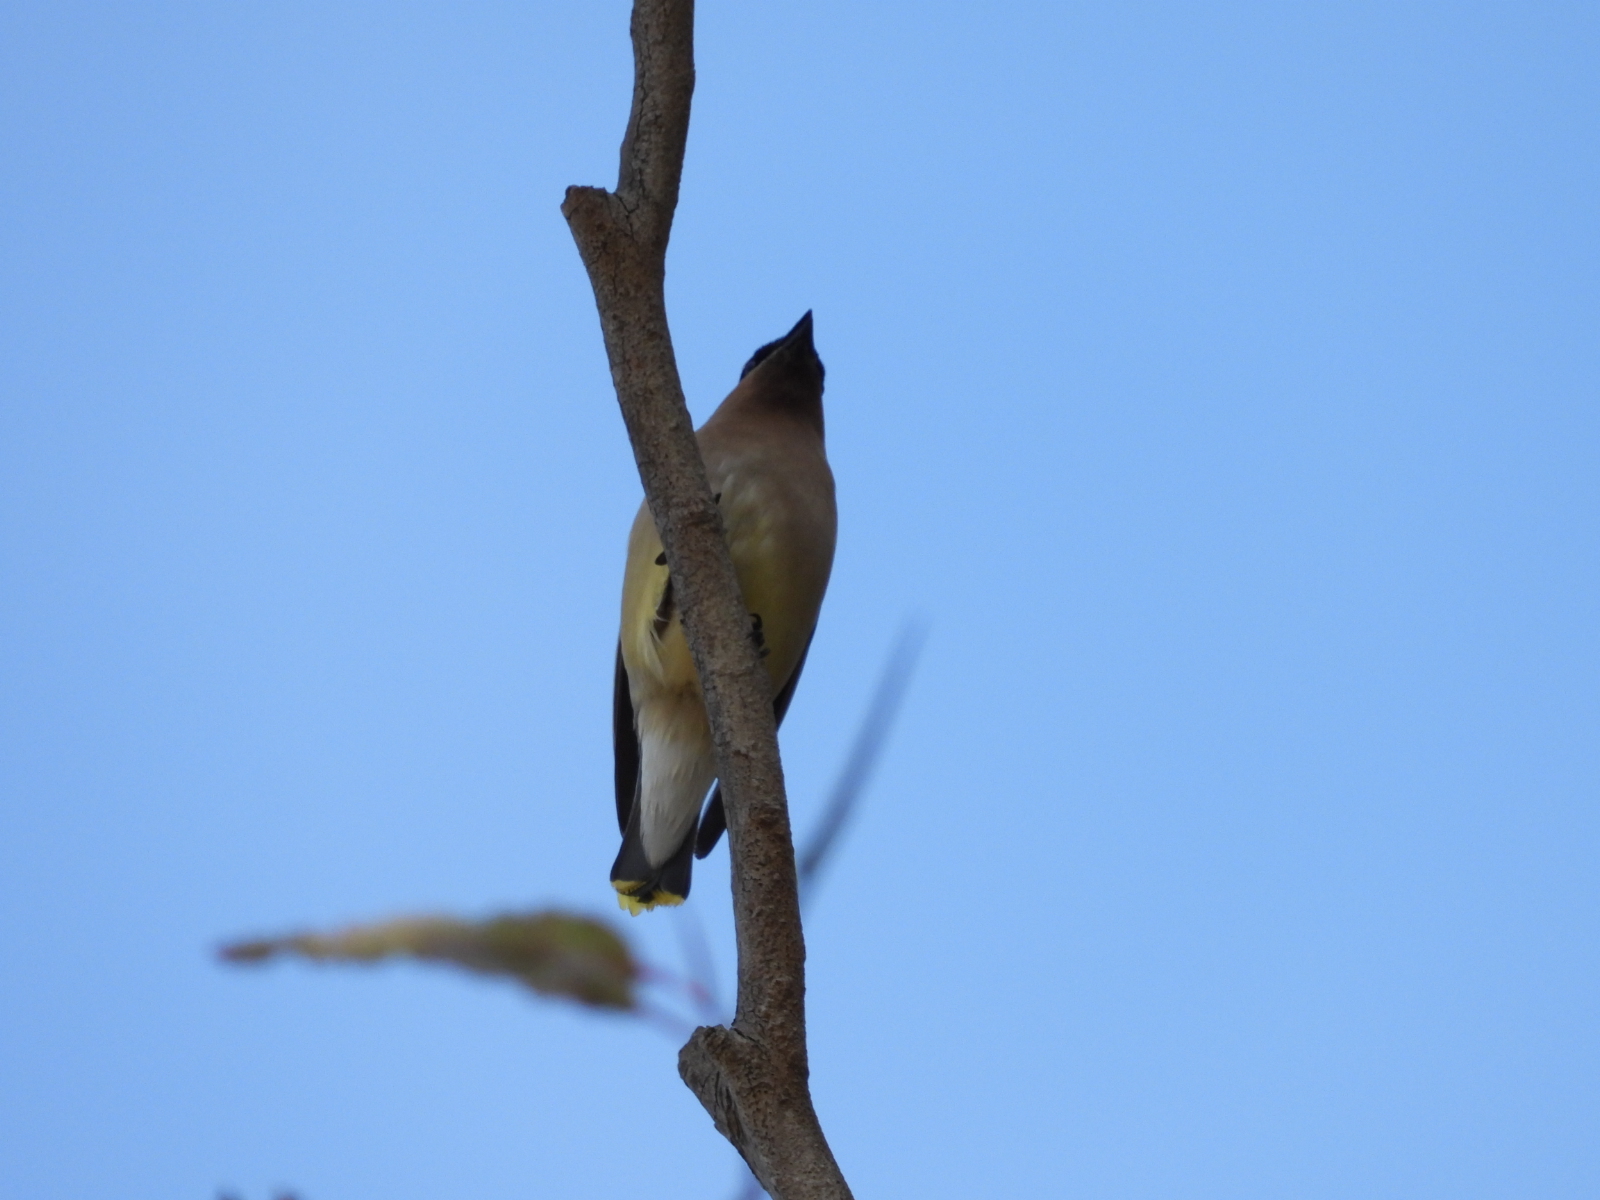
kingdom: Animalia
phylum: Chordata
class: Aves
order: Passeriformes
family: Bombycillidae
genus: Bombycilla
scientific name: Bombycilla cedrorum
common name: Cedar waxwing
